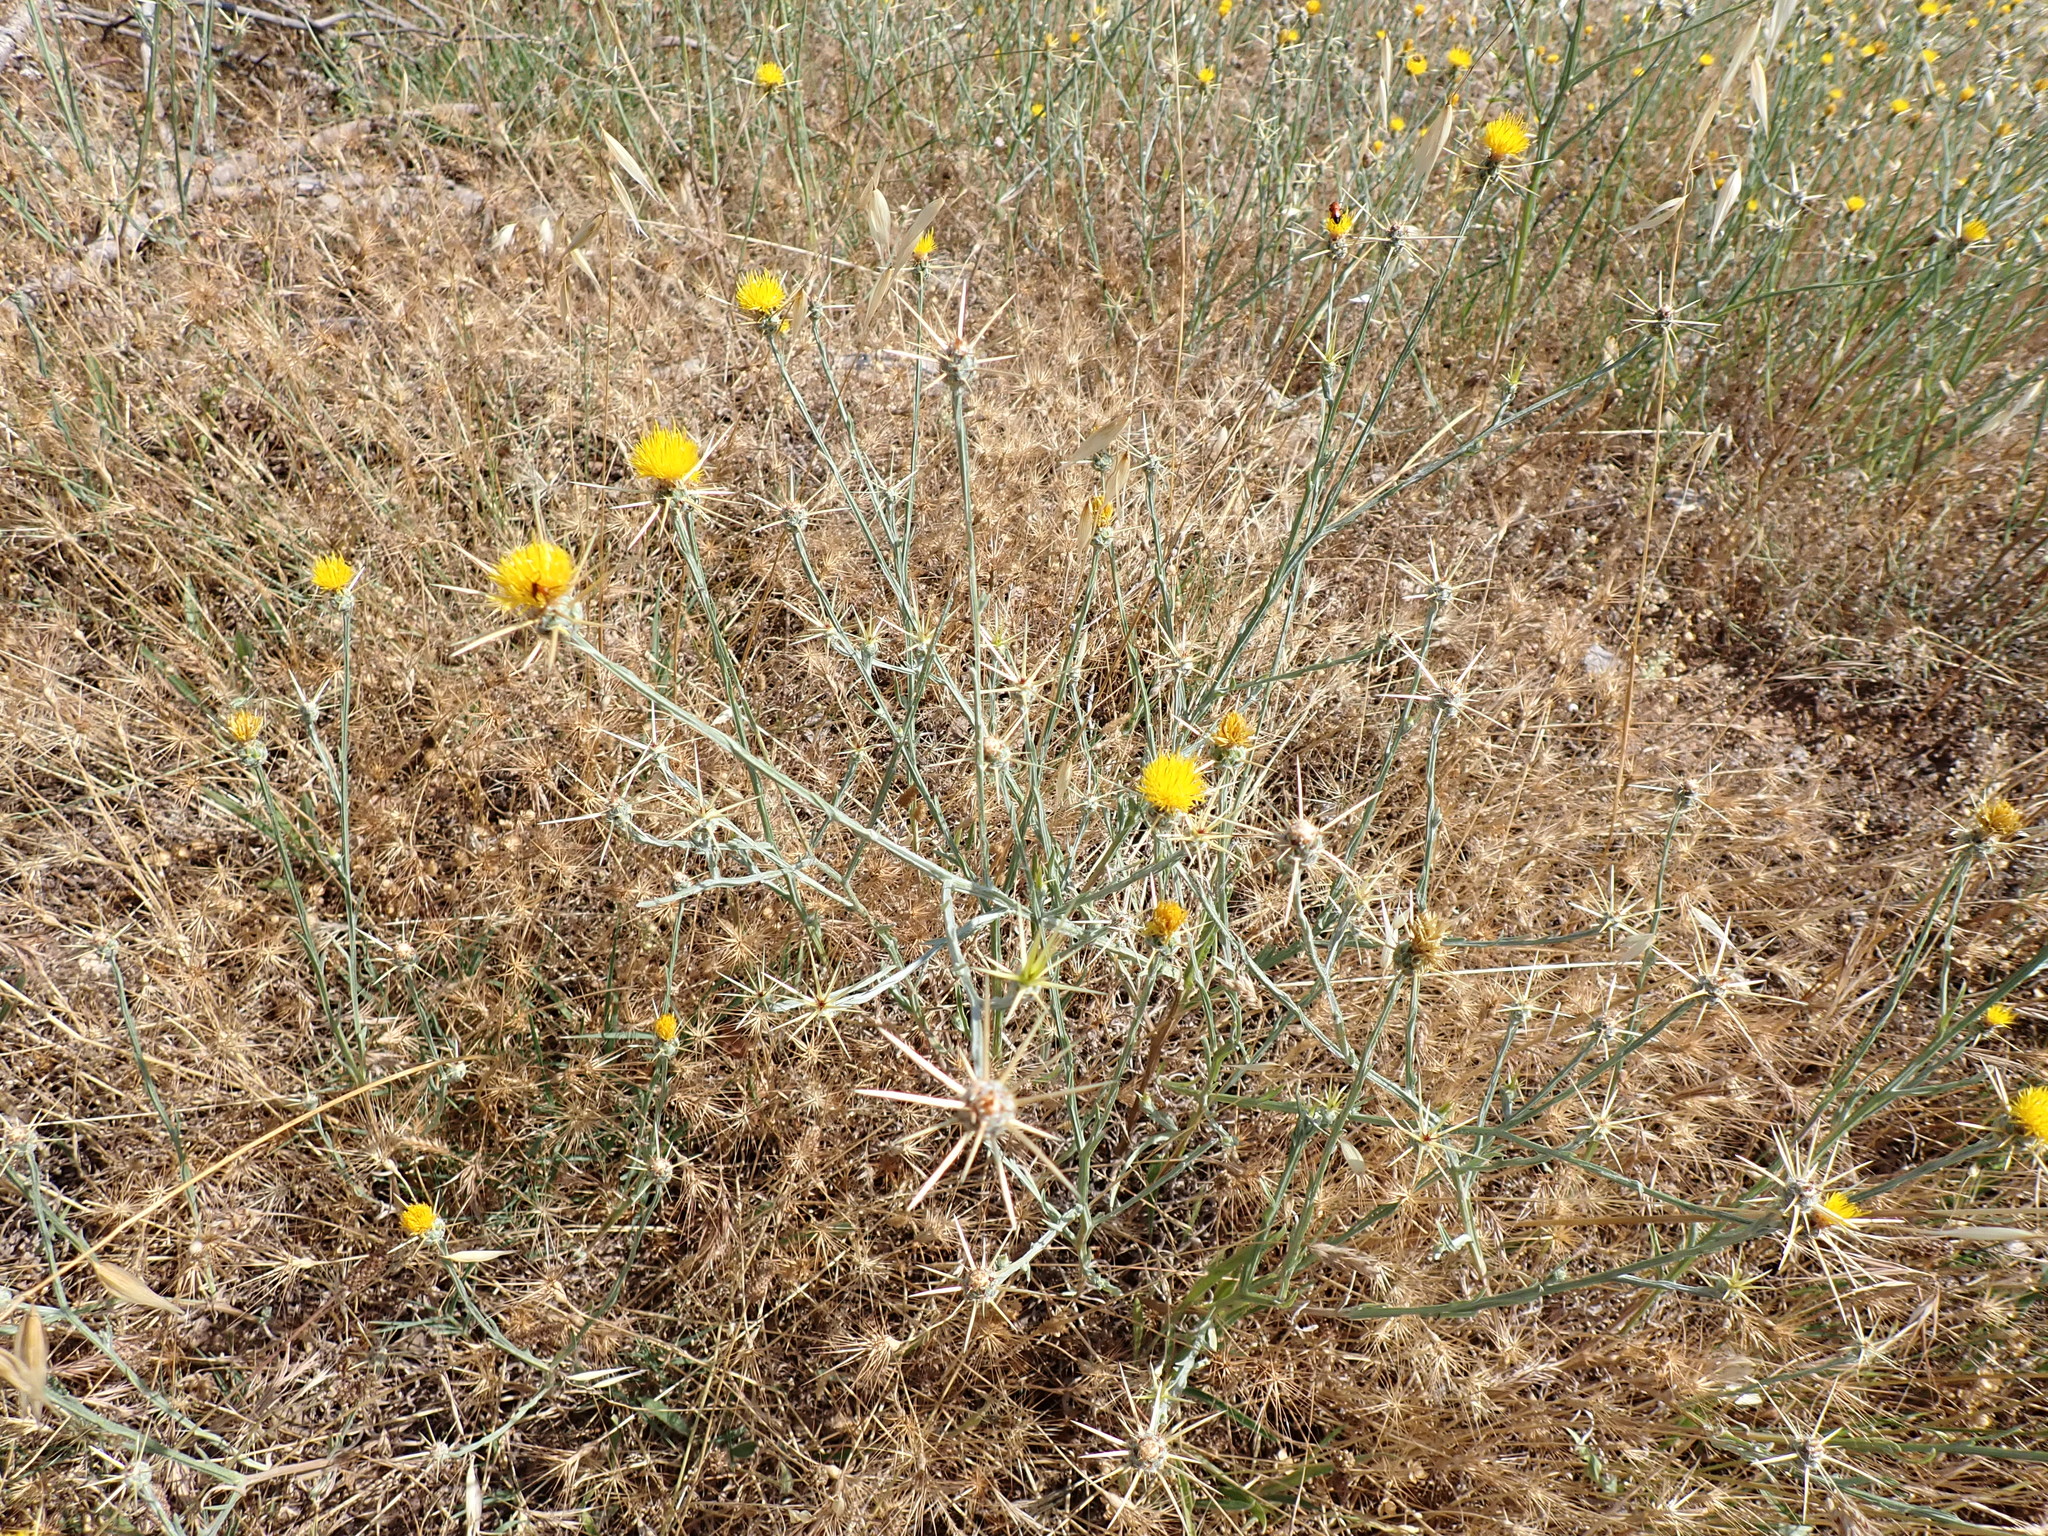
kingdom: Plantae
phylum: Tracheophyta
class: Magnoliopsida
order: Asterales
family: Asteraceae
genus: Centaurea
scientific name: Centaurea solstitialis
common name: Yellow star-thistle
